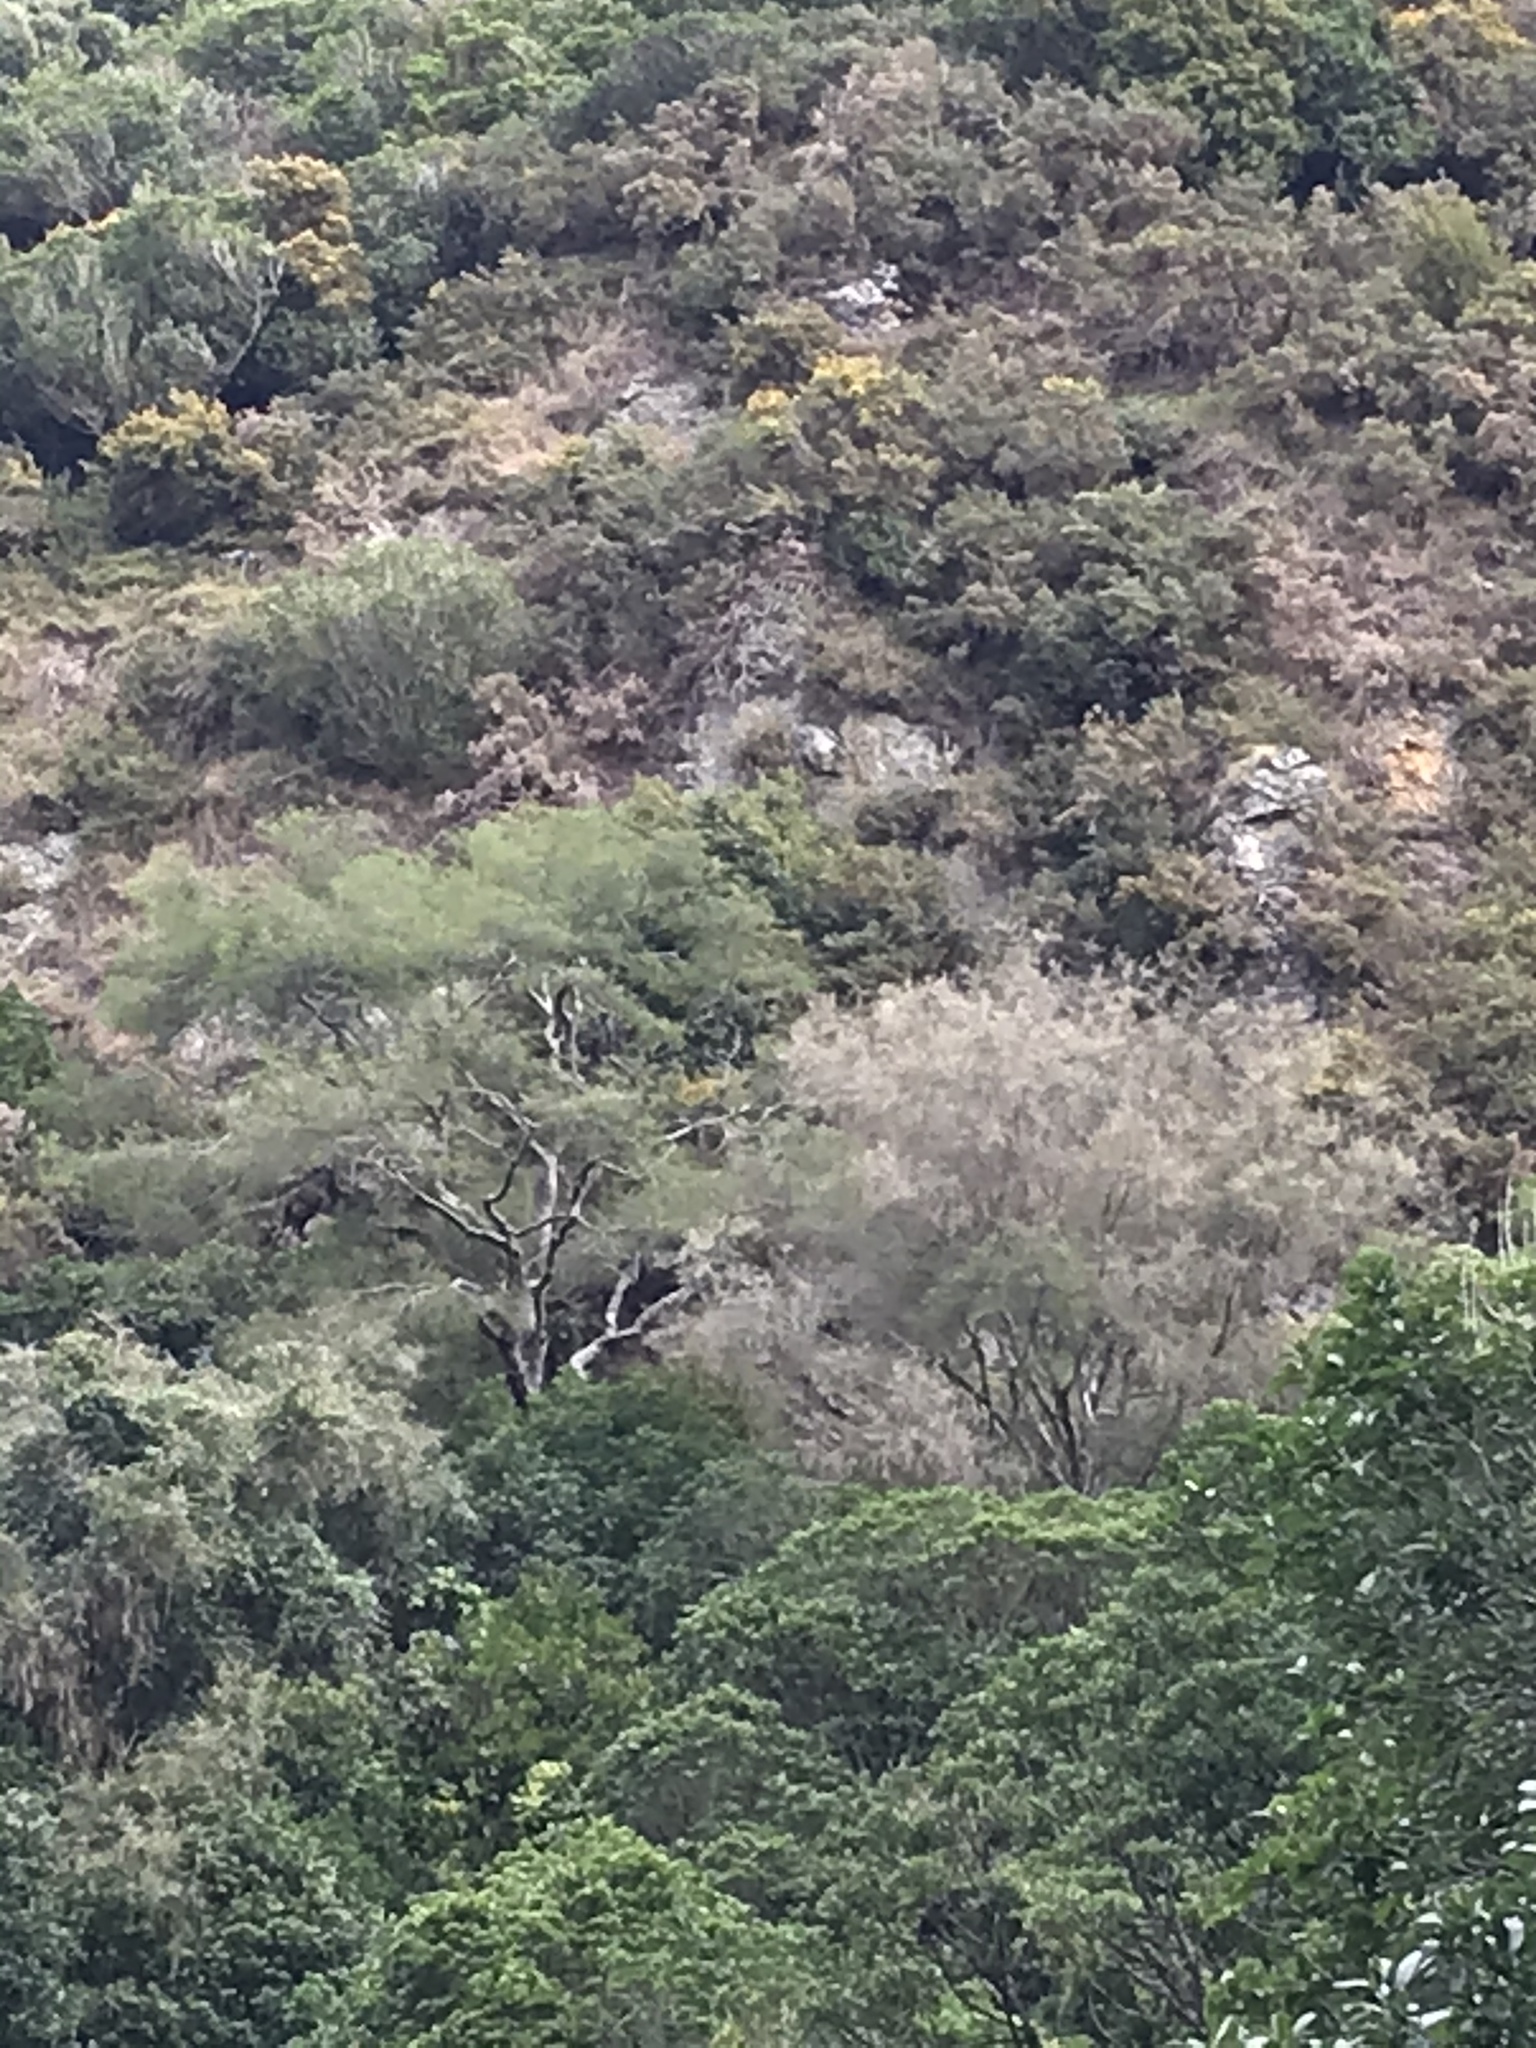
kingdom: Plantae
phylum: Tracheophyta
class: Magnoliopsida
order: Fabales
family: Fabaceae
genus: Sophora
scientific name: Sophora microphylla
